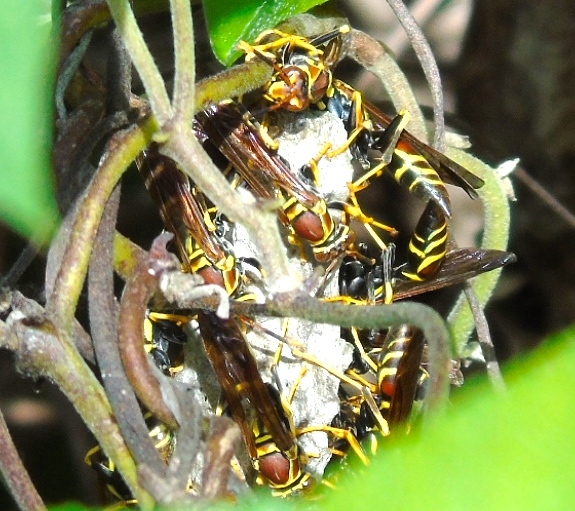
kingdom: Animalia
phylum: Arthropoda
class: Insecta
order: Hymenoptera
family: Eumenidae
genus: Polistes
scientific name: Polistes instabilis
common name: Unstable paper wasp
